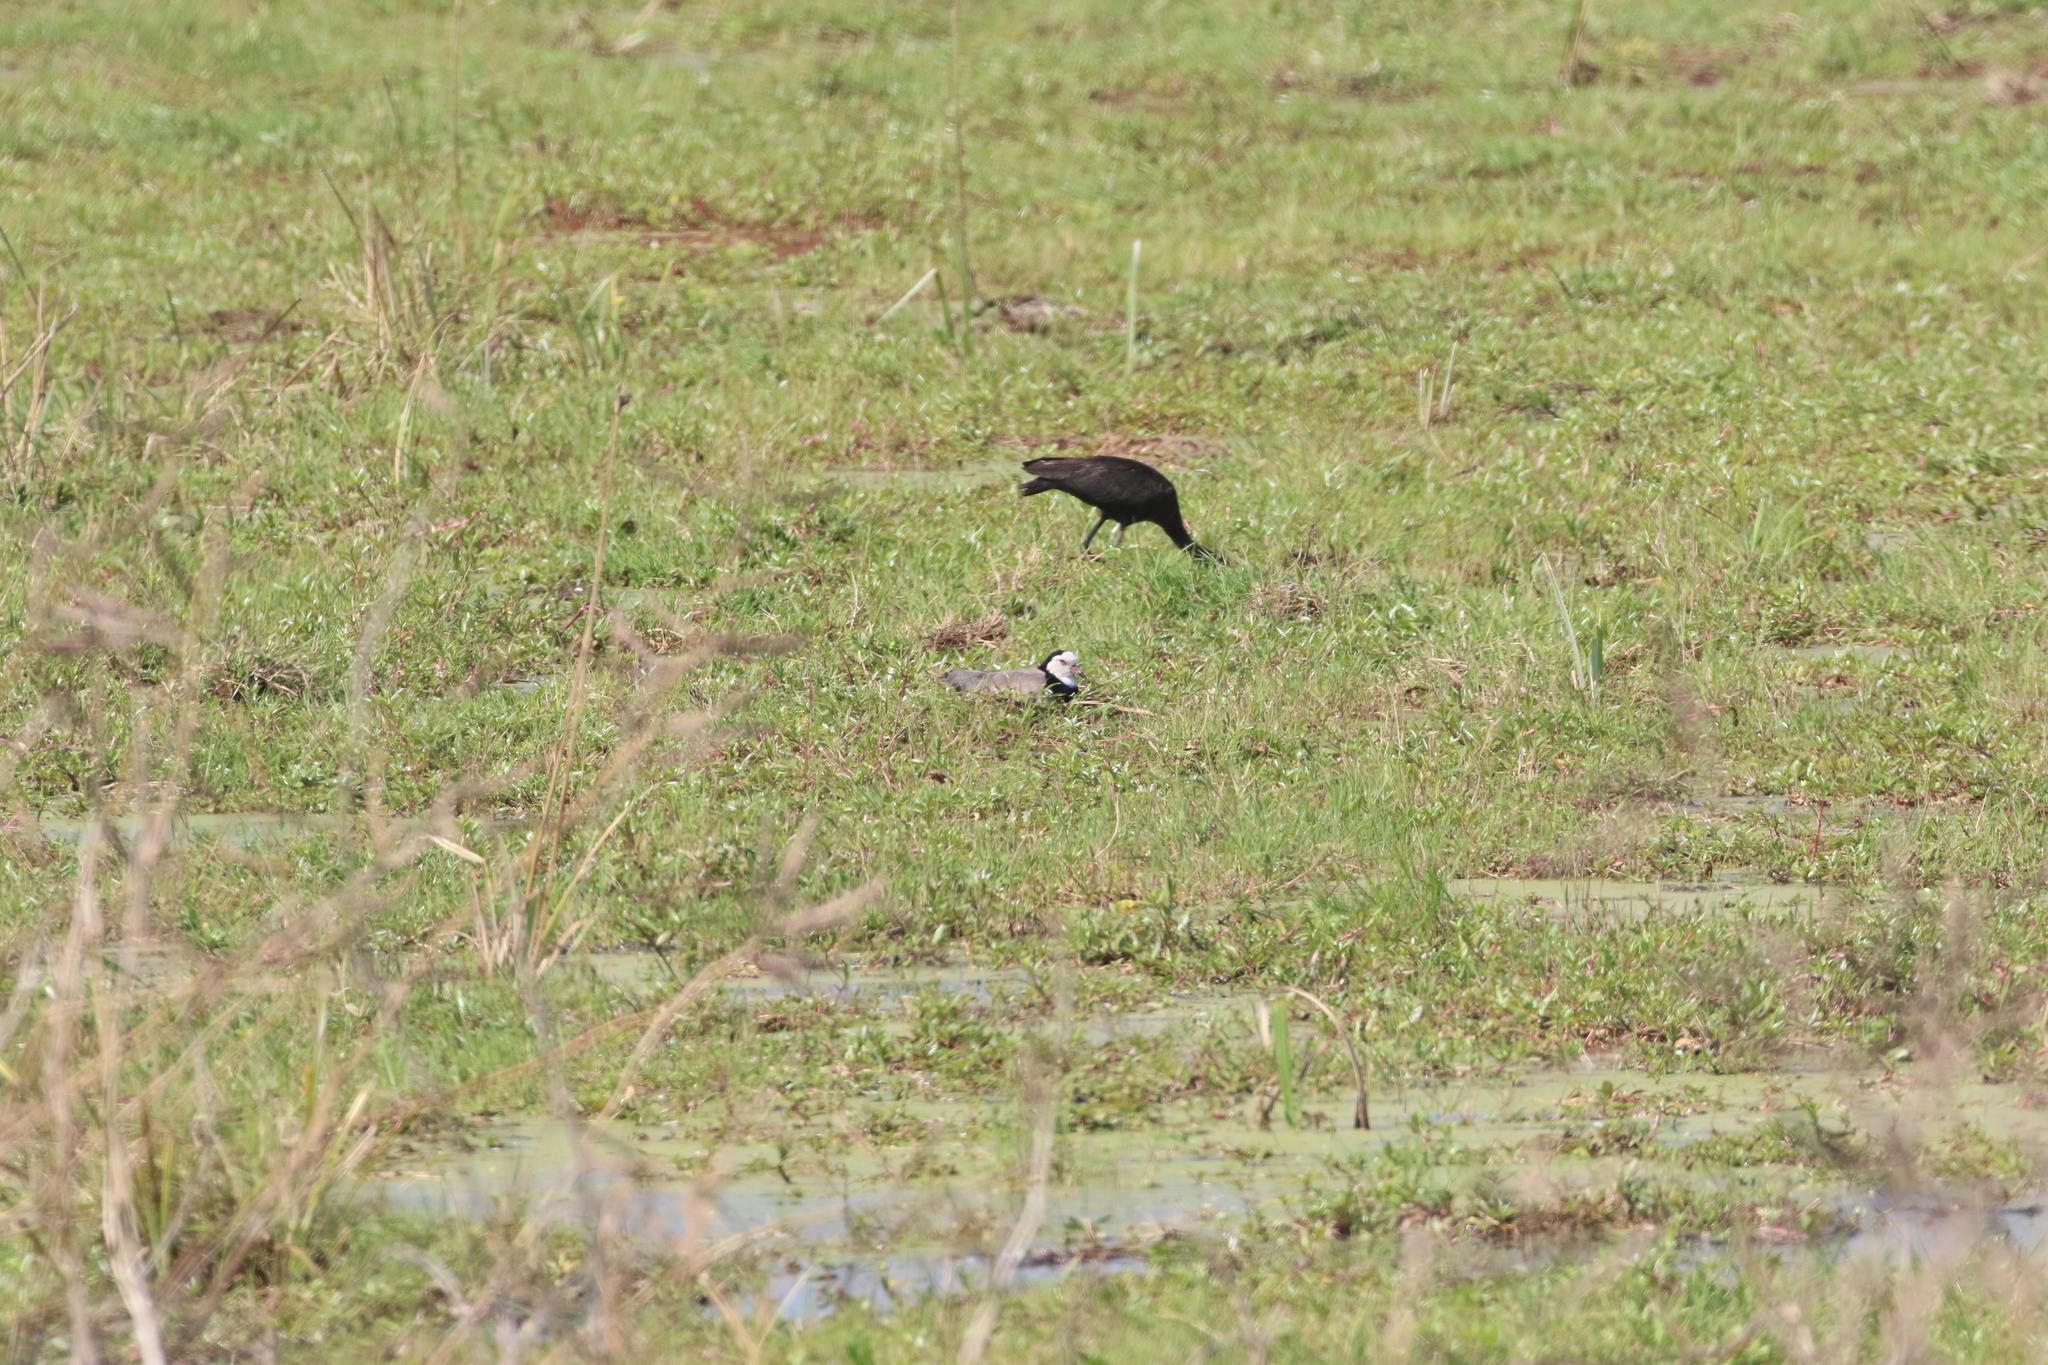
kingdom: Animalia
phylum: Chordata
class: Aves
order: Charadriiformes
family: Charadriidae
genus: Vanellus
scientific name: Vanellus crassirostris
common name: Long-toed lapwing
